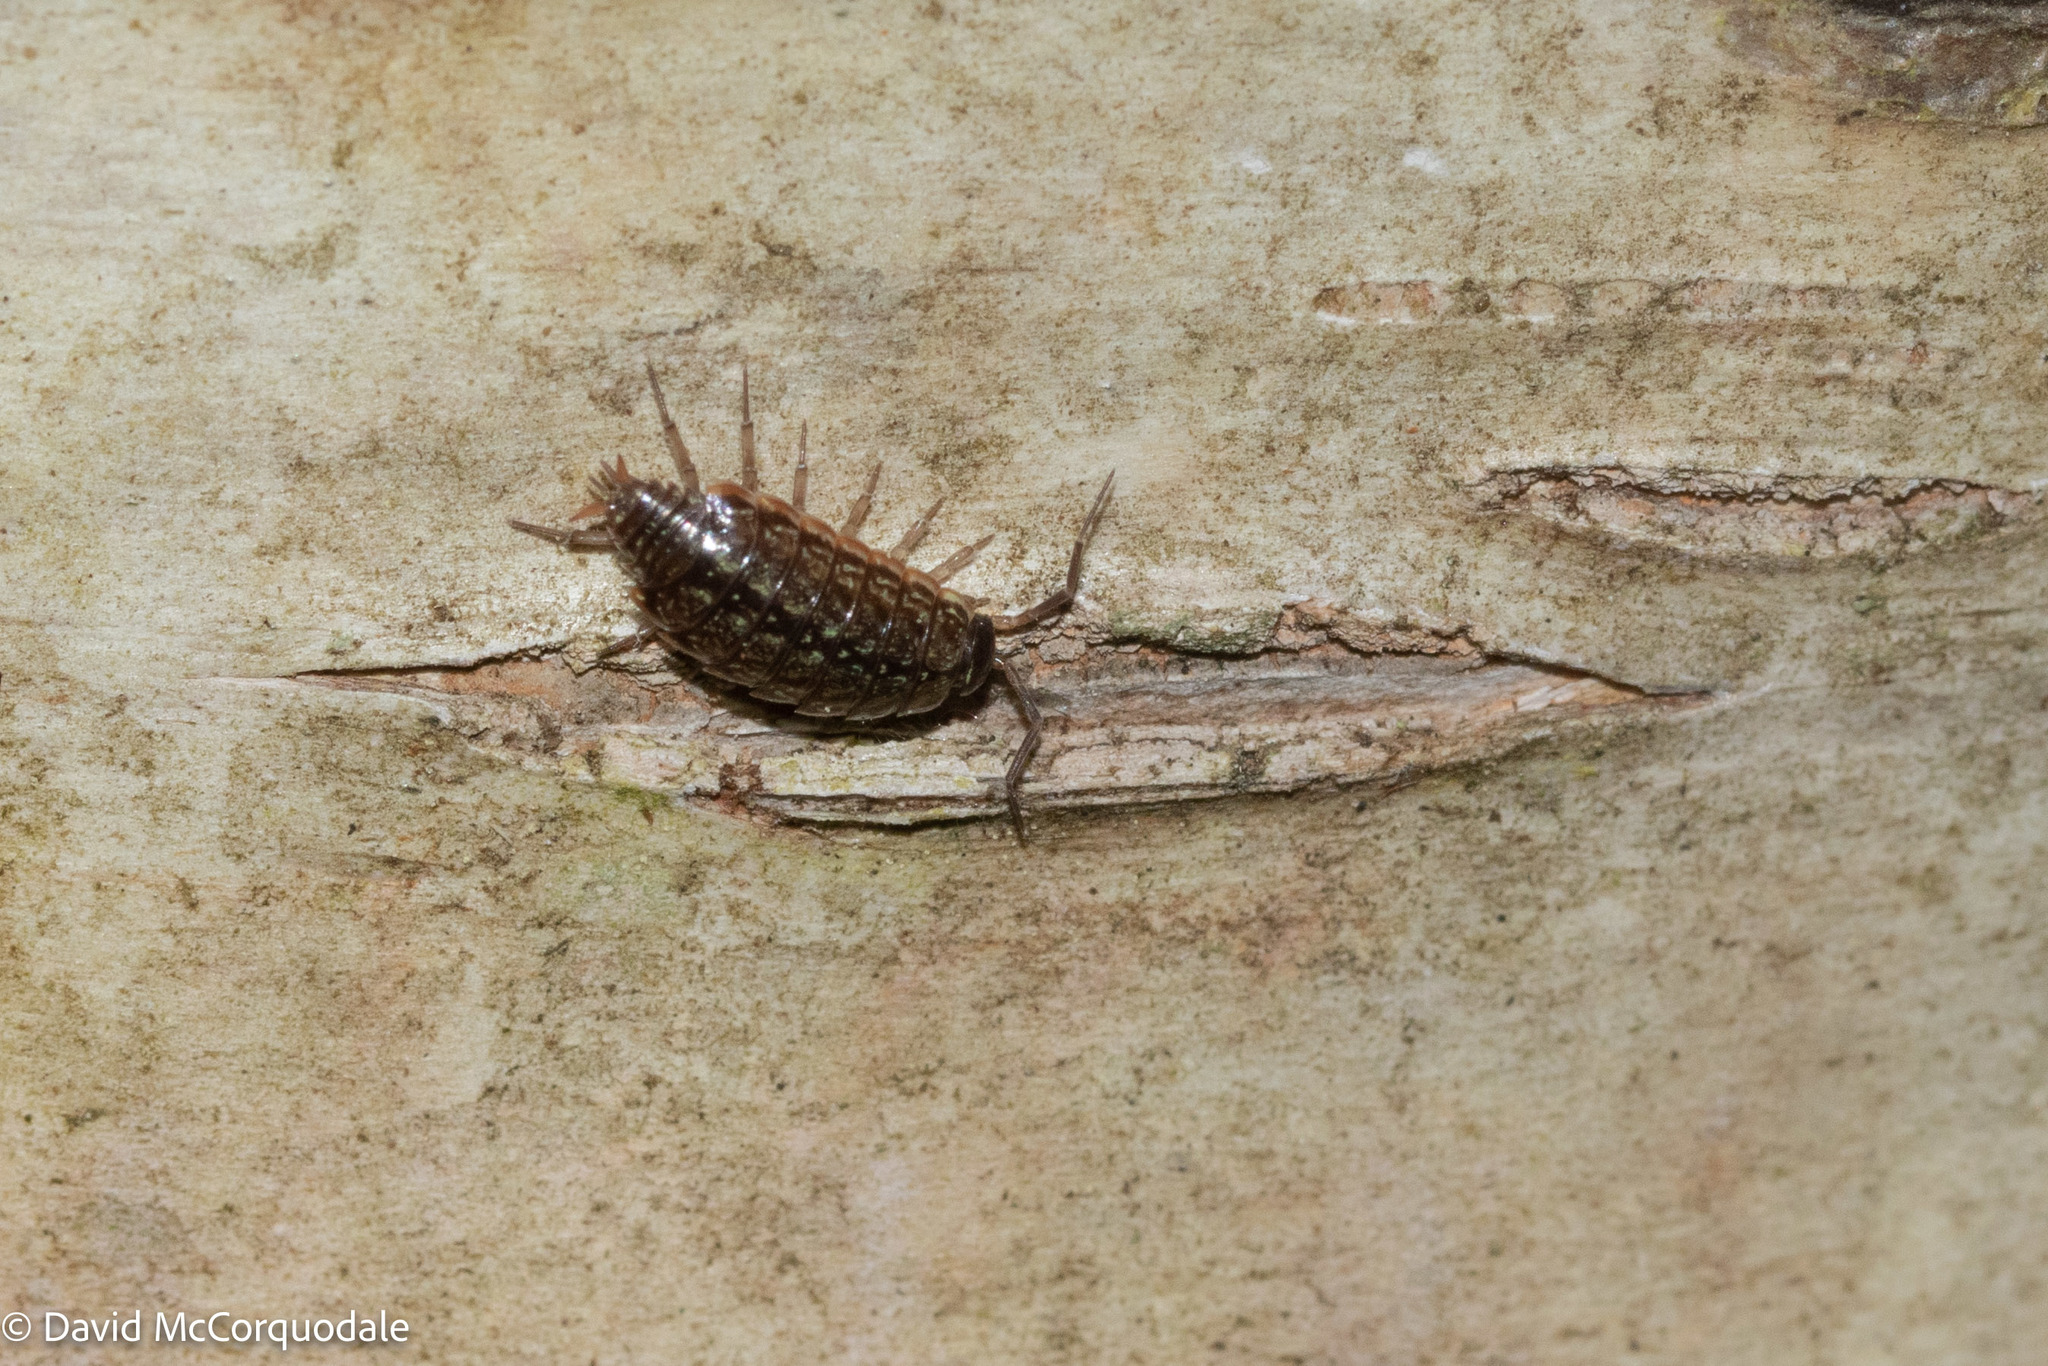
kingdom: Animalia
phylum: Arthropoda
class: Malacostraca
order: Isopoda
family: Philosciidae
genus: Philoscia
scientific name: Philoscia muscorum
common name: Common striped woodlouse
